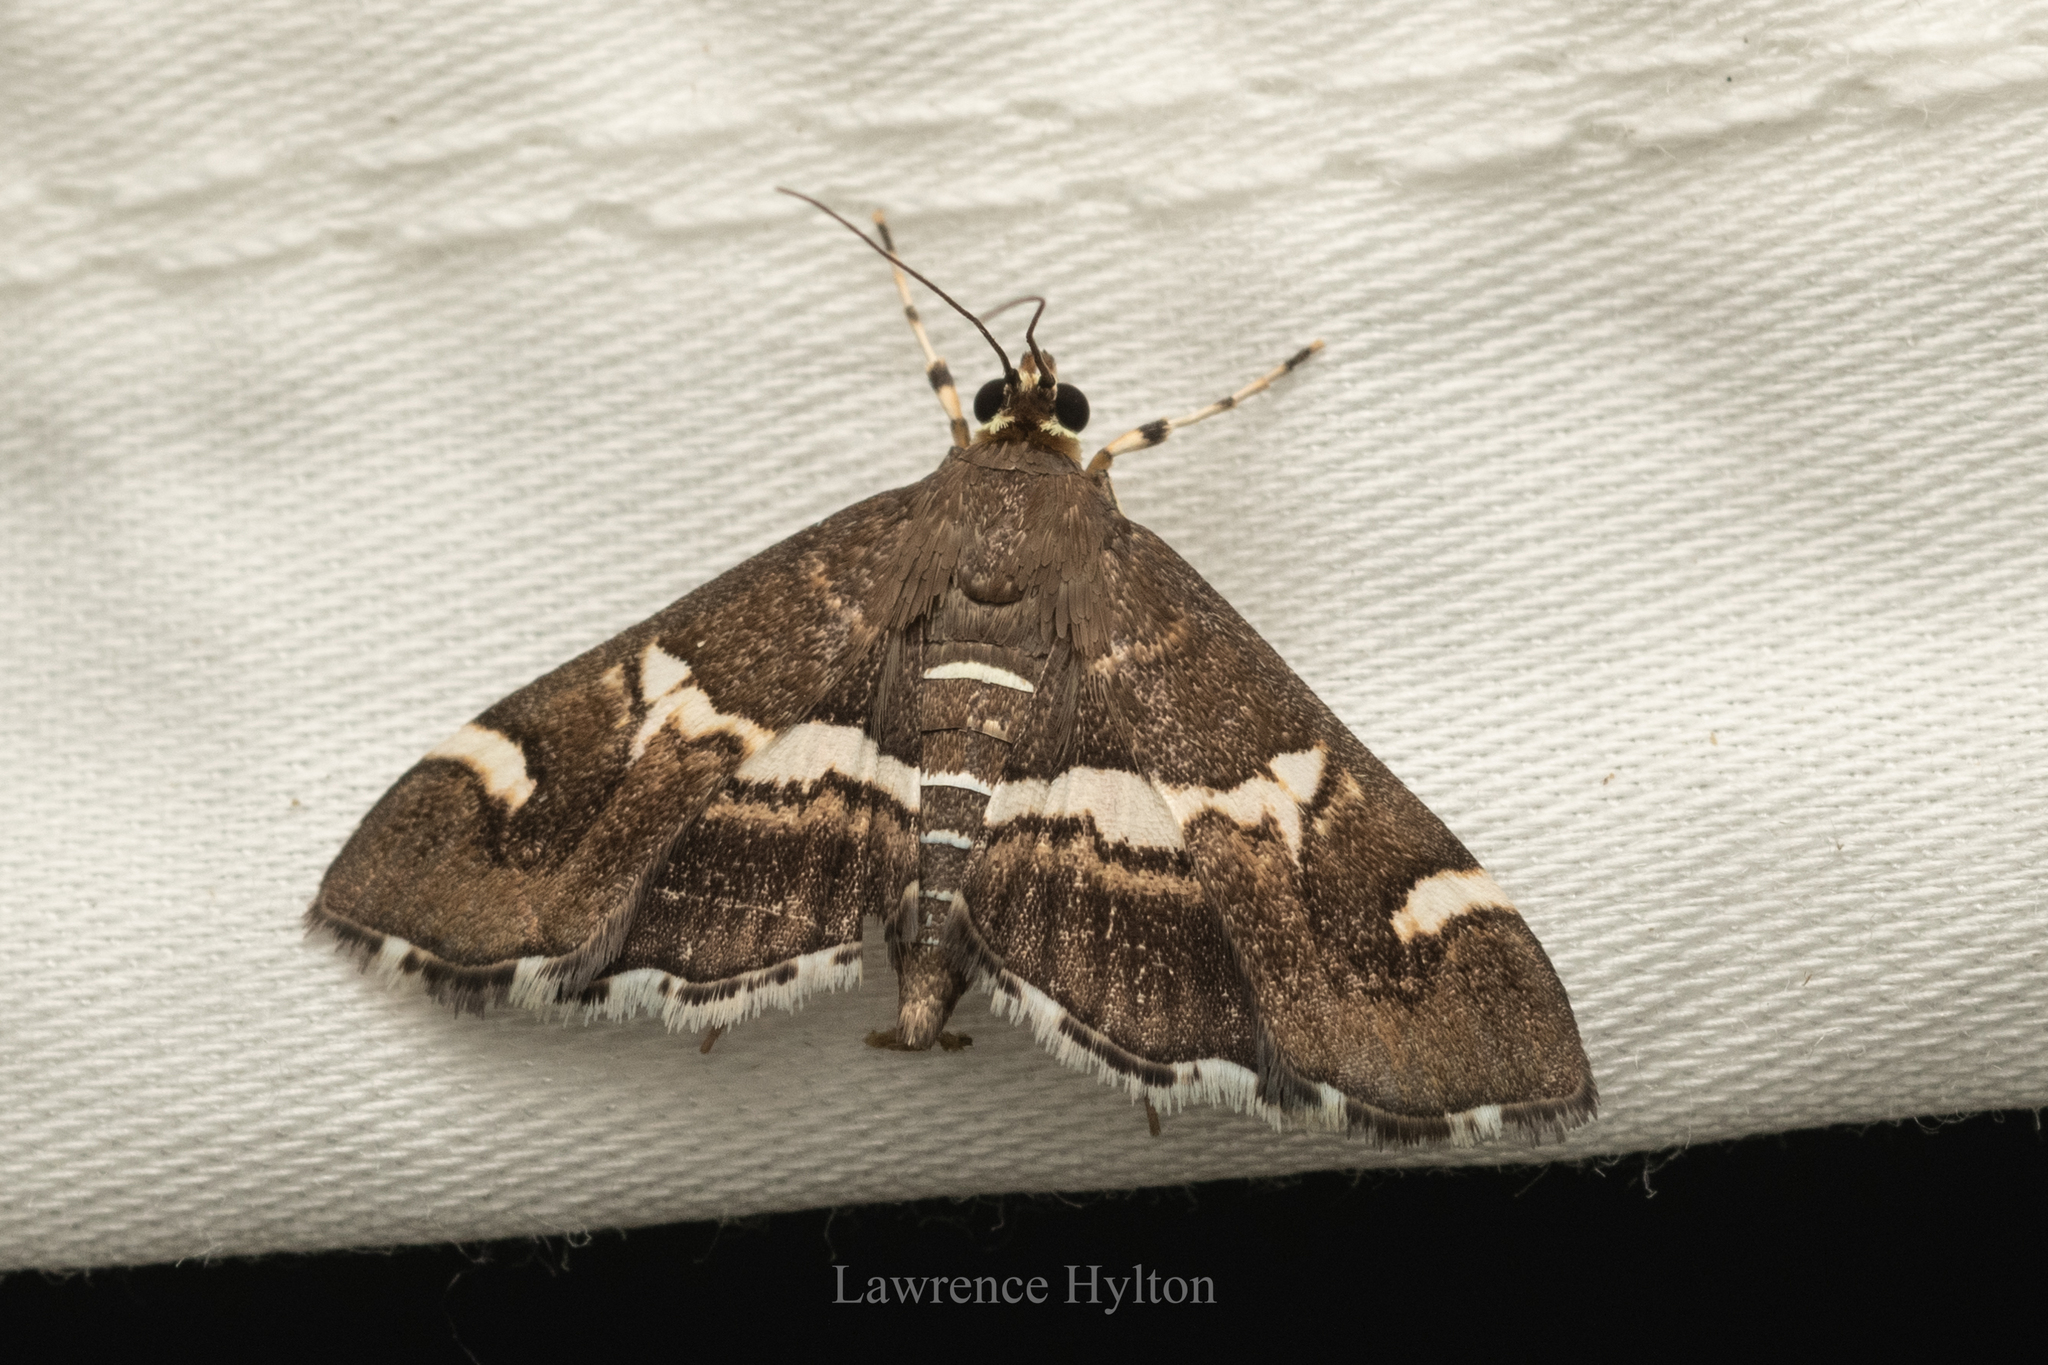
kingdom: Animalia
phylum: Arthropoda
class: Insecta
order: Lepidoptera
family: Crambidae
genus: Spoladea
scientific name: Spoladea recurvalis
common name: Beet webworm moth
